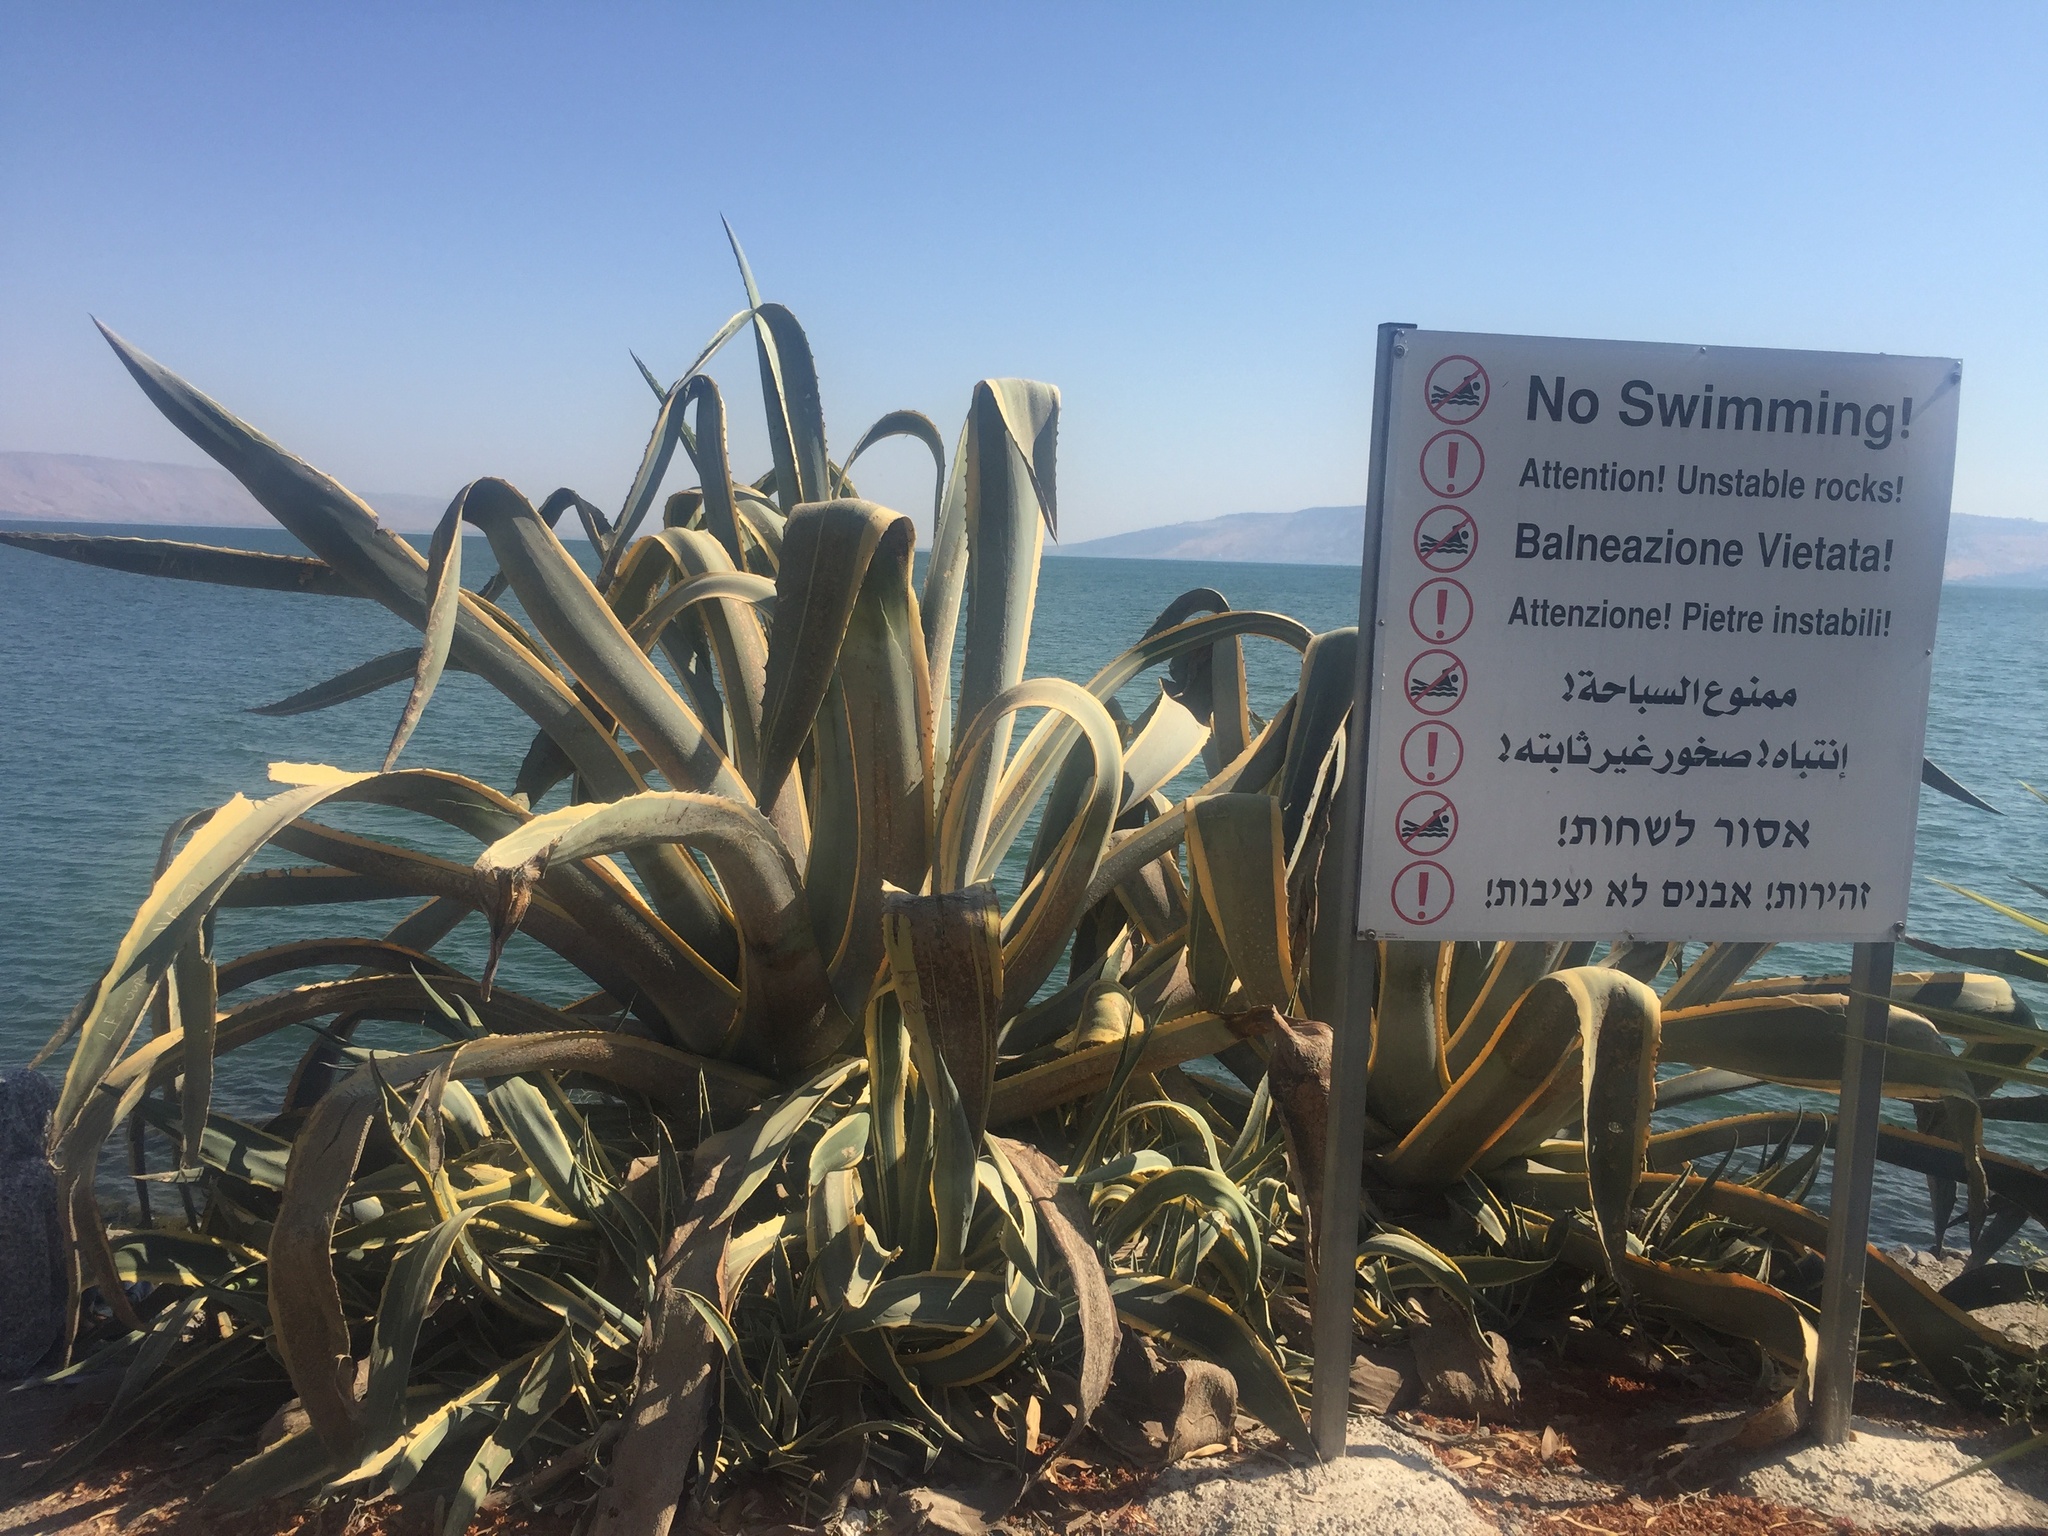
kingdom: Plantae
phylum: Tracheophyta
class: Liliopsida
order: Asparagales
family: Asparagaceae
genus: Agave
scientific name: Agave americana
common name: Centuryplant
